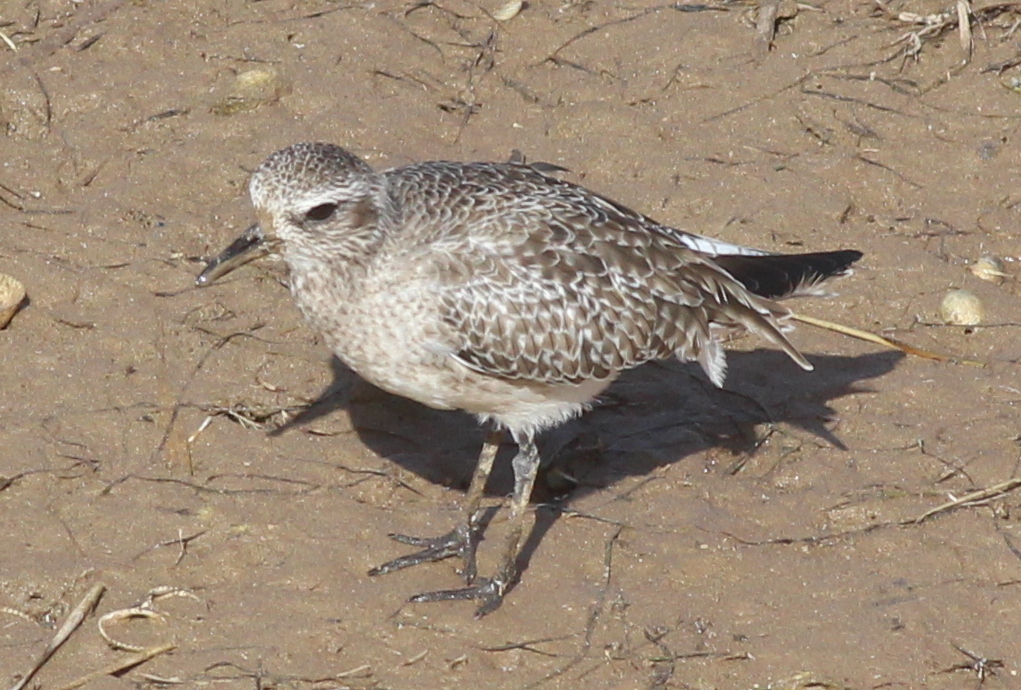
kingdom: Animalia
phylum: Chordata
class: Aves
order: Charadriiformes
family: Charadriidae
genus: Pluvialis
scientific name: Pluvialis squatarola
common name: Grey plover
